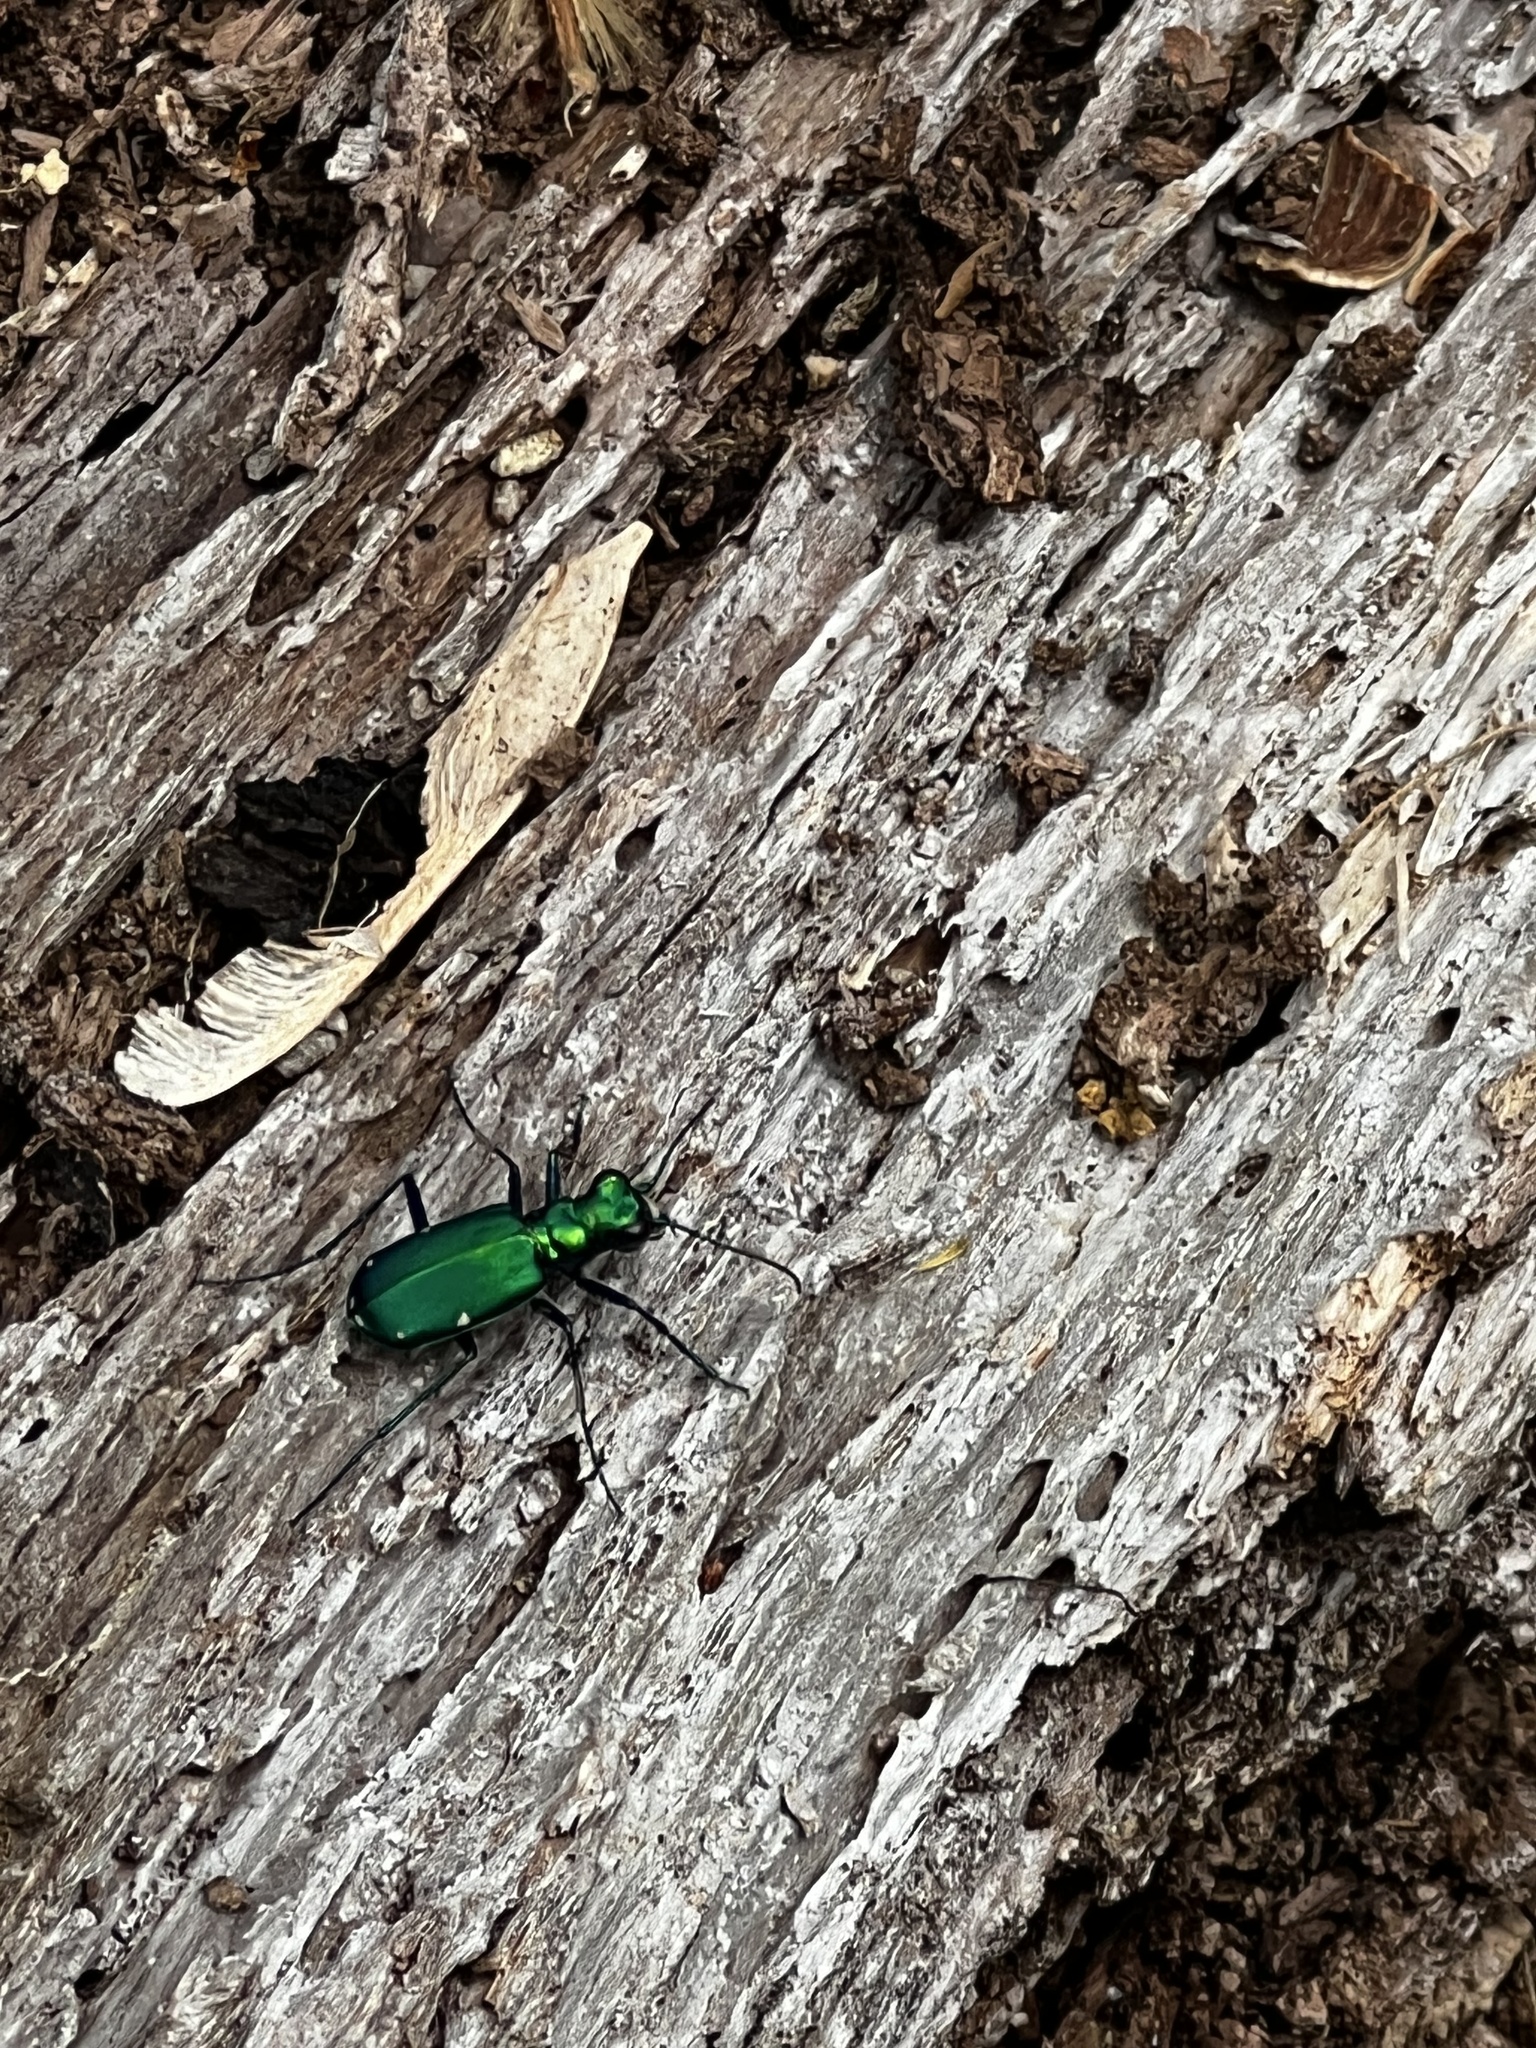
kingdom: Animalia
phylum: Arthropoda
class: Insecta
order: Coleoptera
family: Carabidae
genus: Cicindela
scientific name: Cicindela sexguttata
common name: Six-spotted tiger beetle
